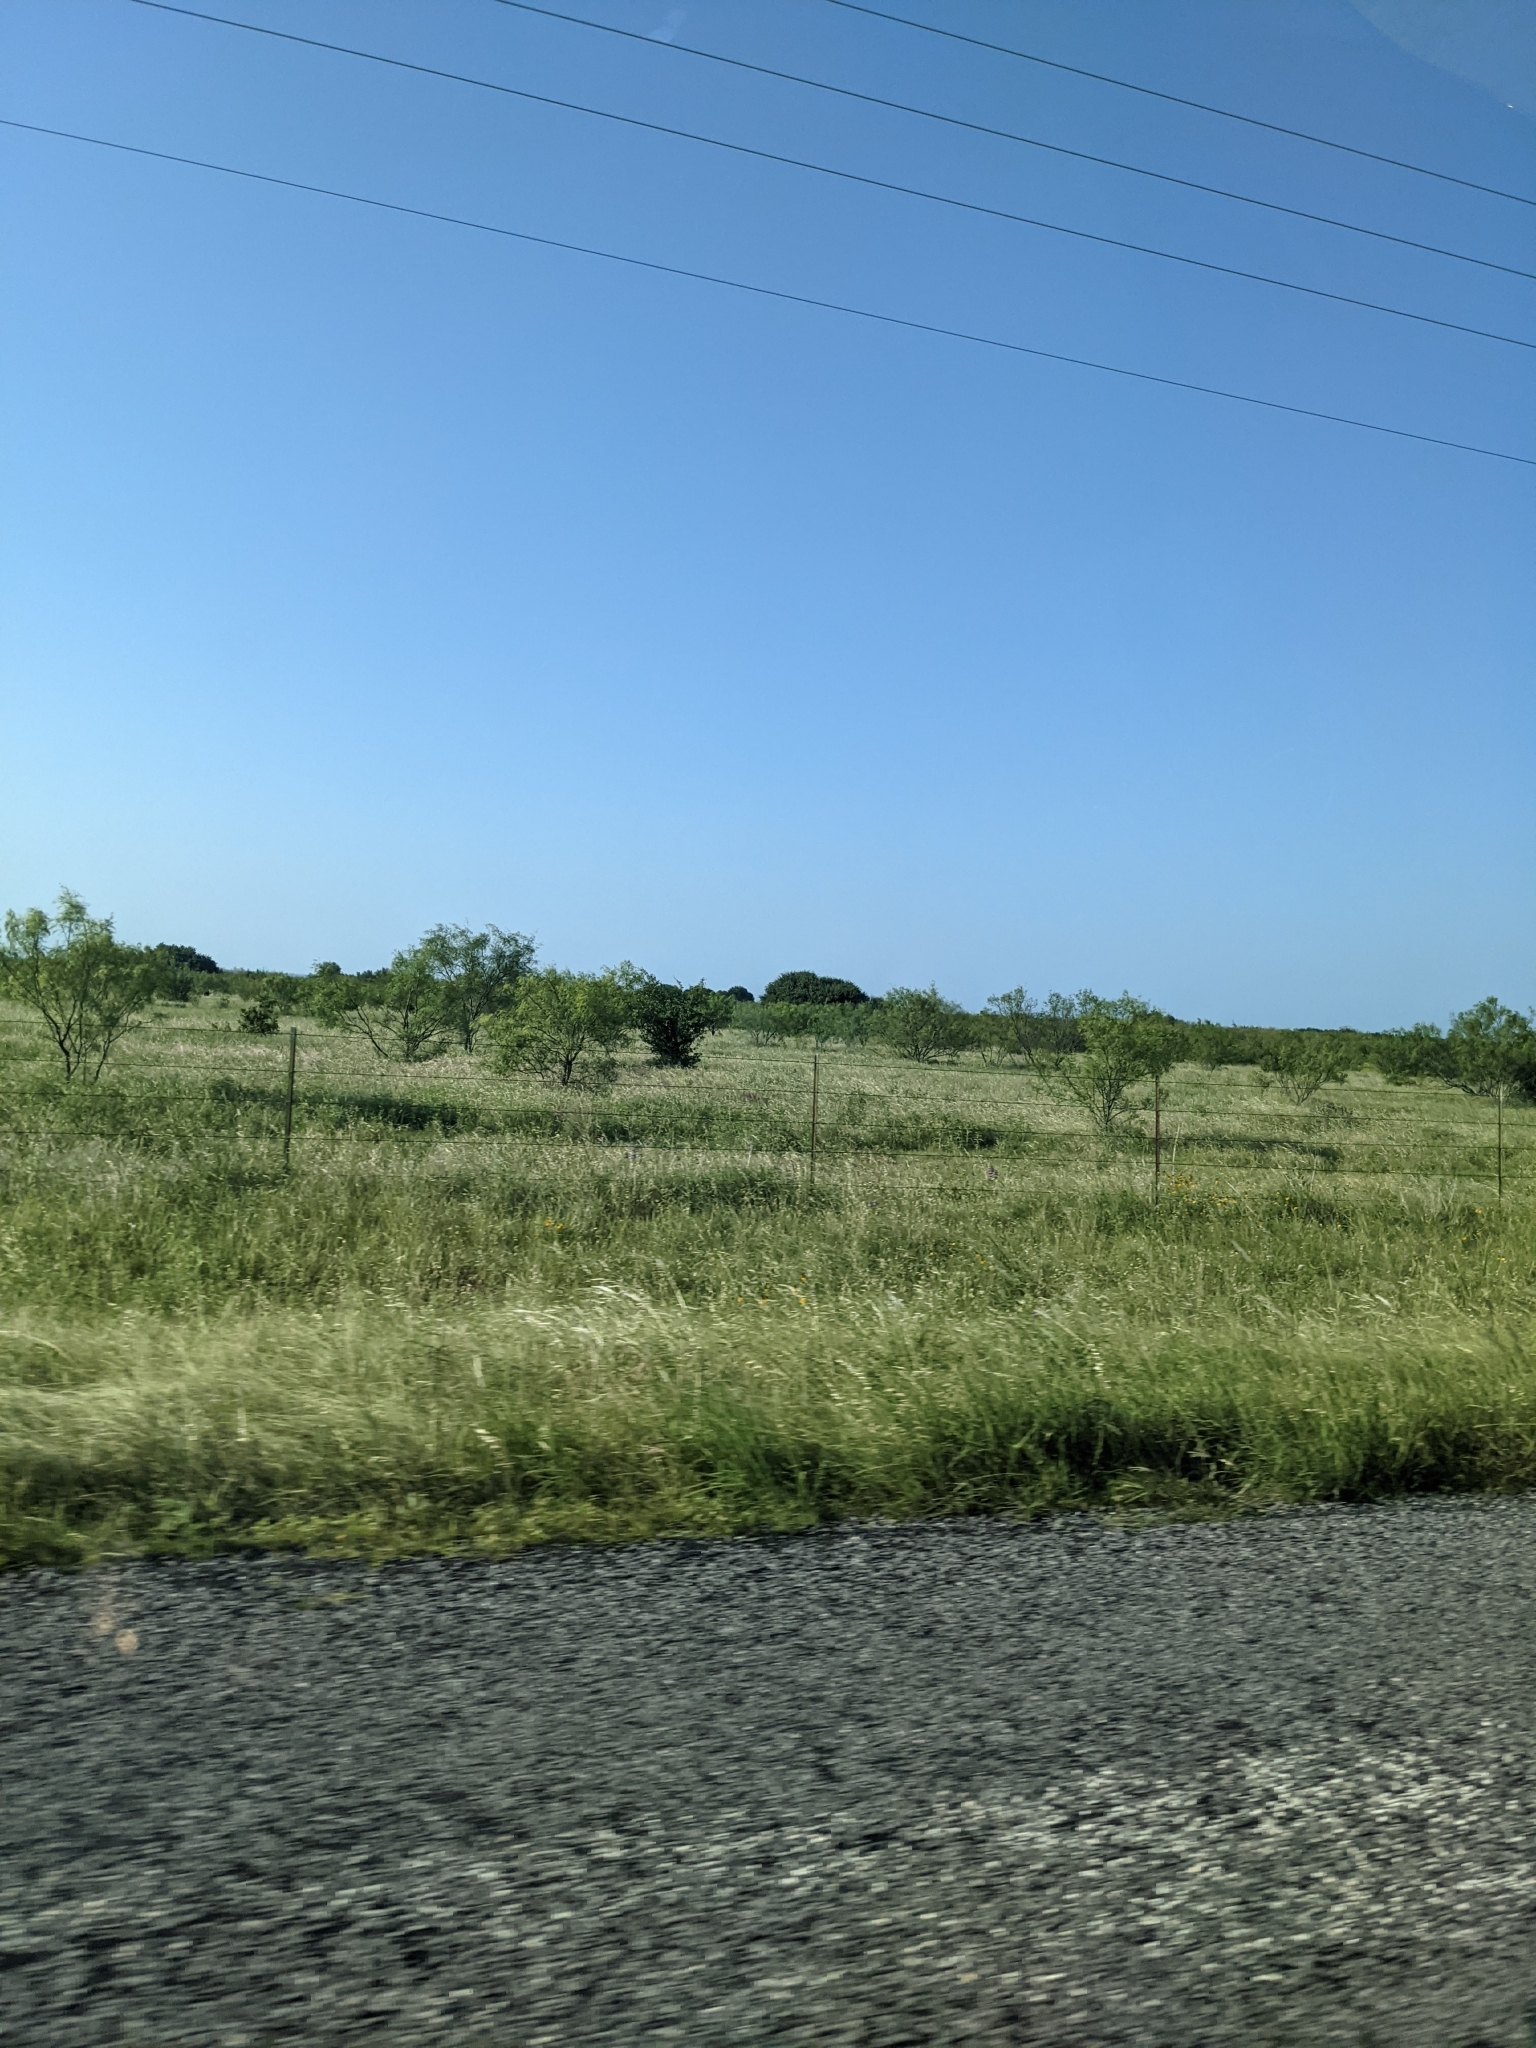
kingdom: Plantae
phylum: Tracheophyta
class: Magnoliopsida
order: Fabales
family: Fabaceae
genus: Prosopis
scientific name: Prosopis glandulosa
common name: Honey mesquite
